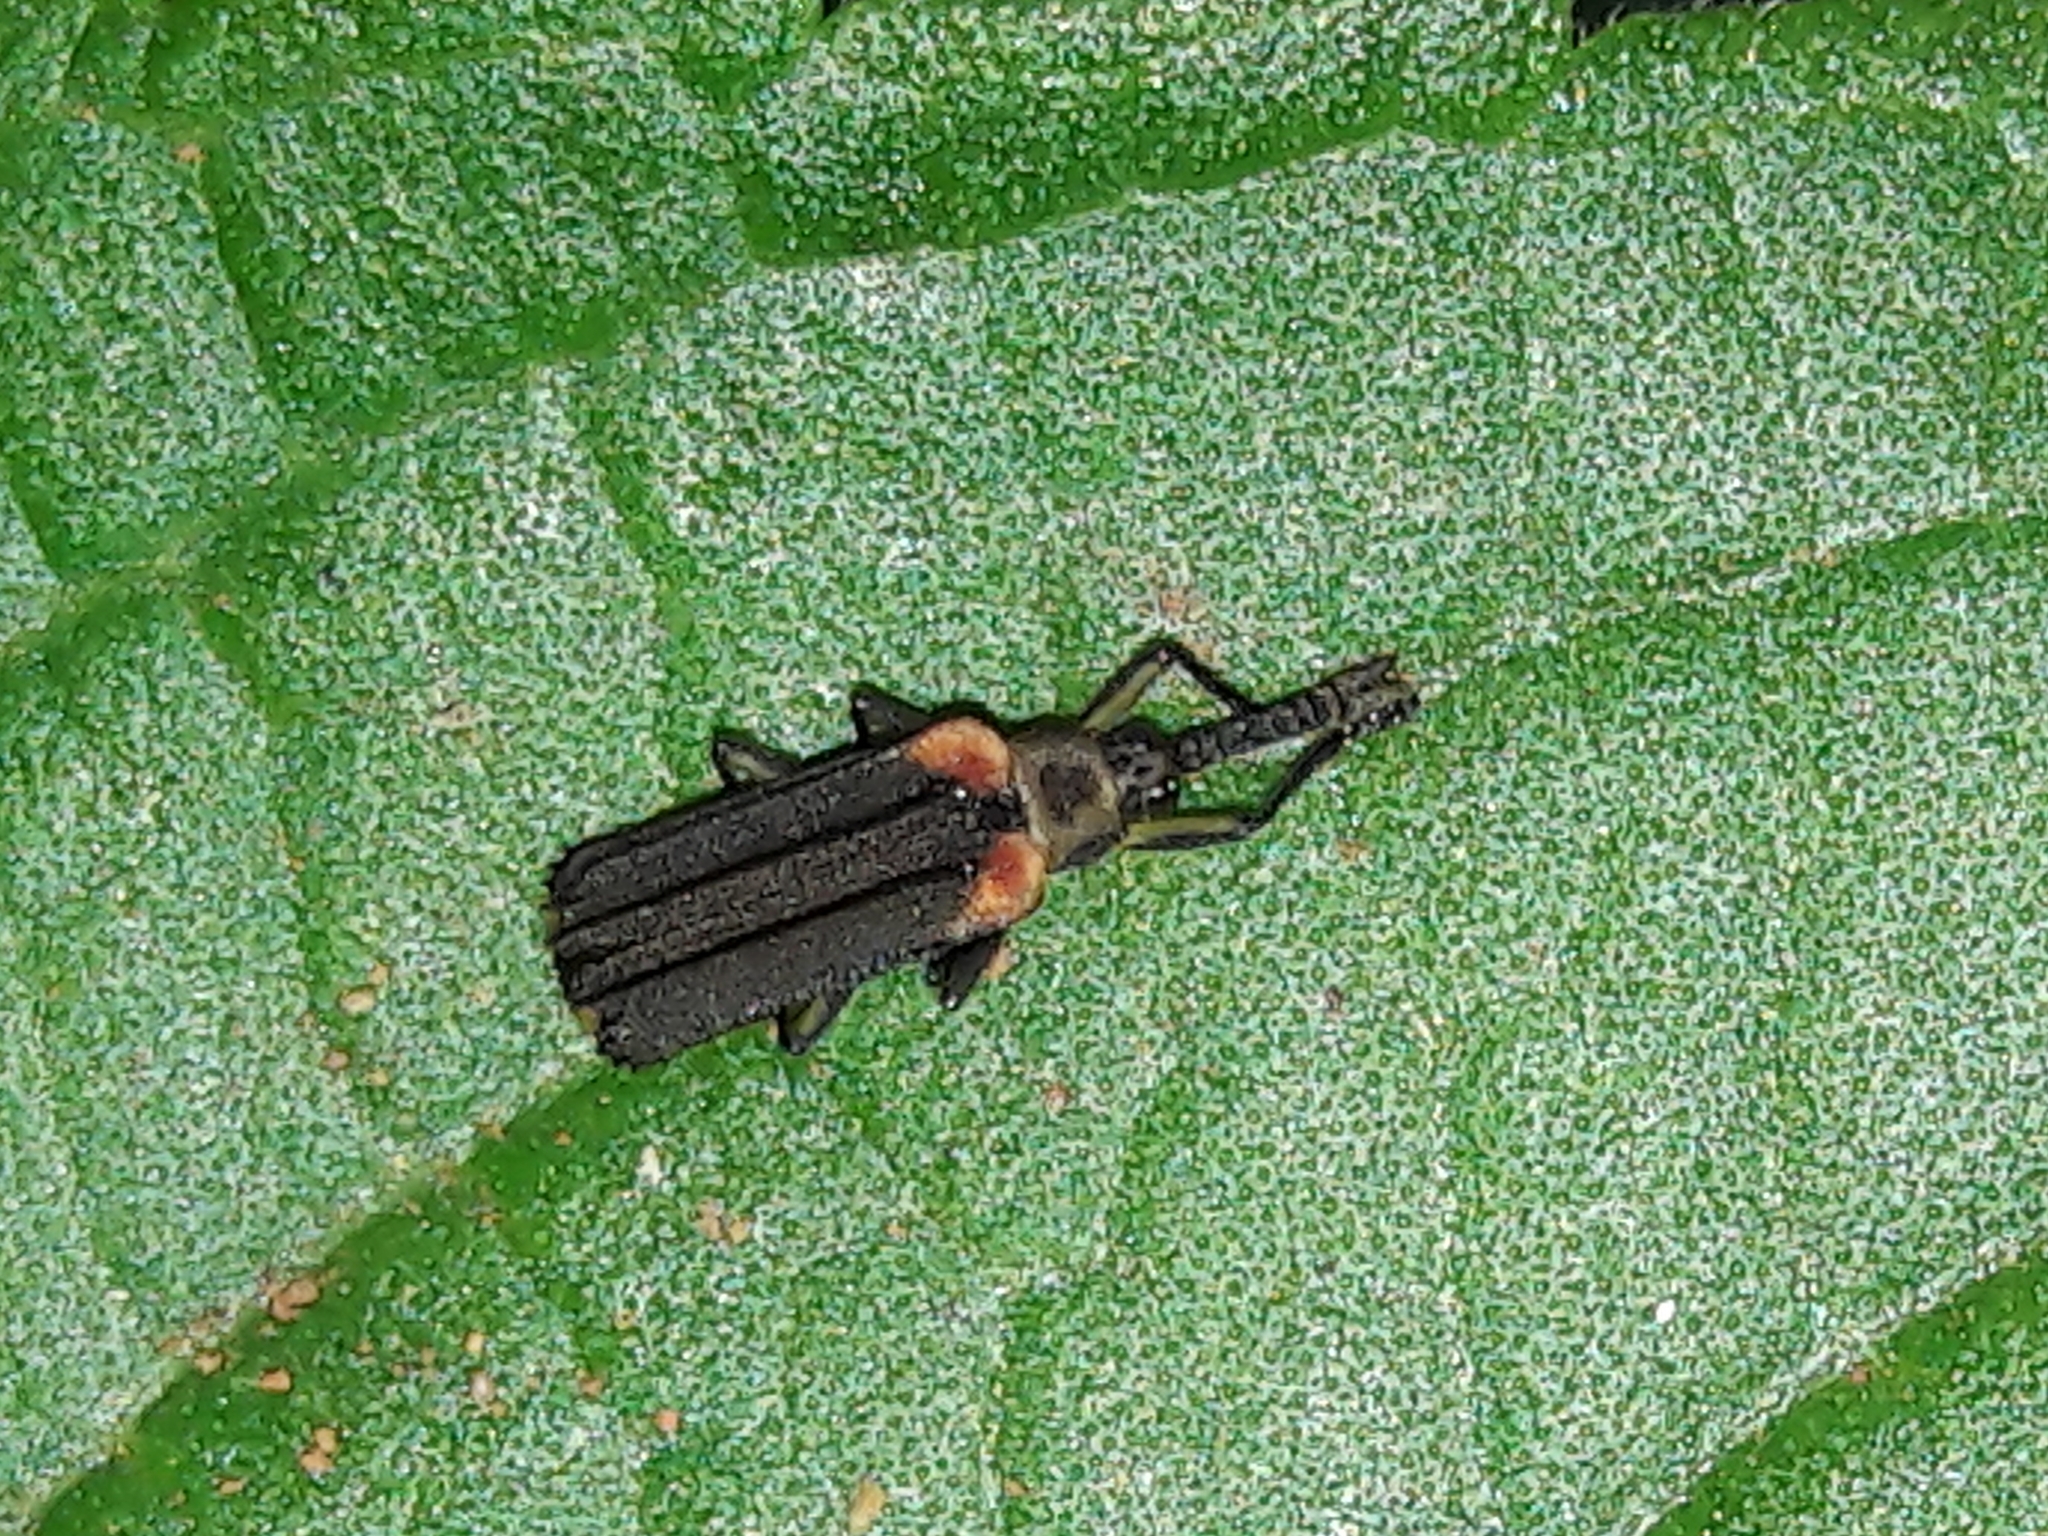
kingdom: Animalia
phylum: Arthropoda
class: Insecta
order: Coleoptera
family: Chrysomelidae
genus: Heterispa
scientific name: Heterispa vinula
